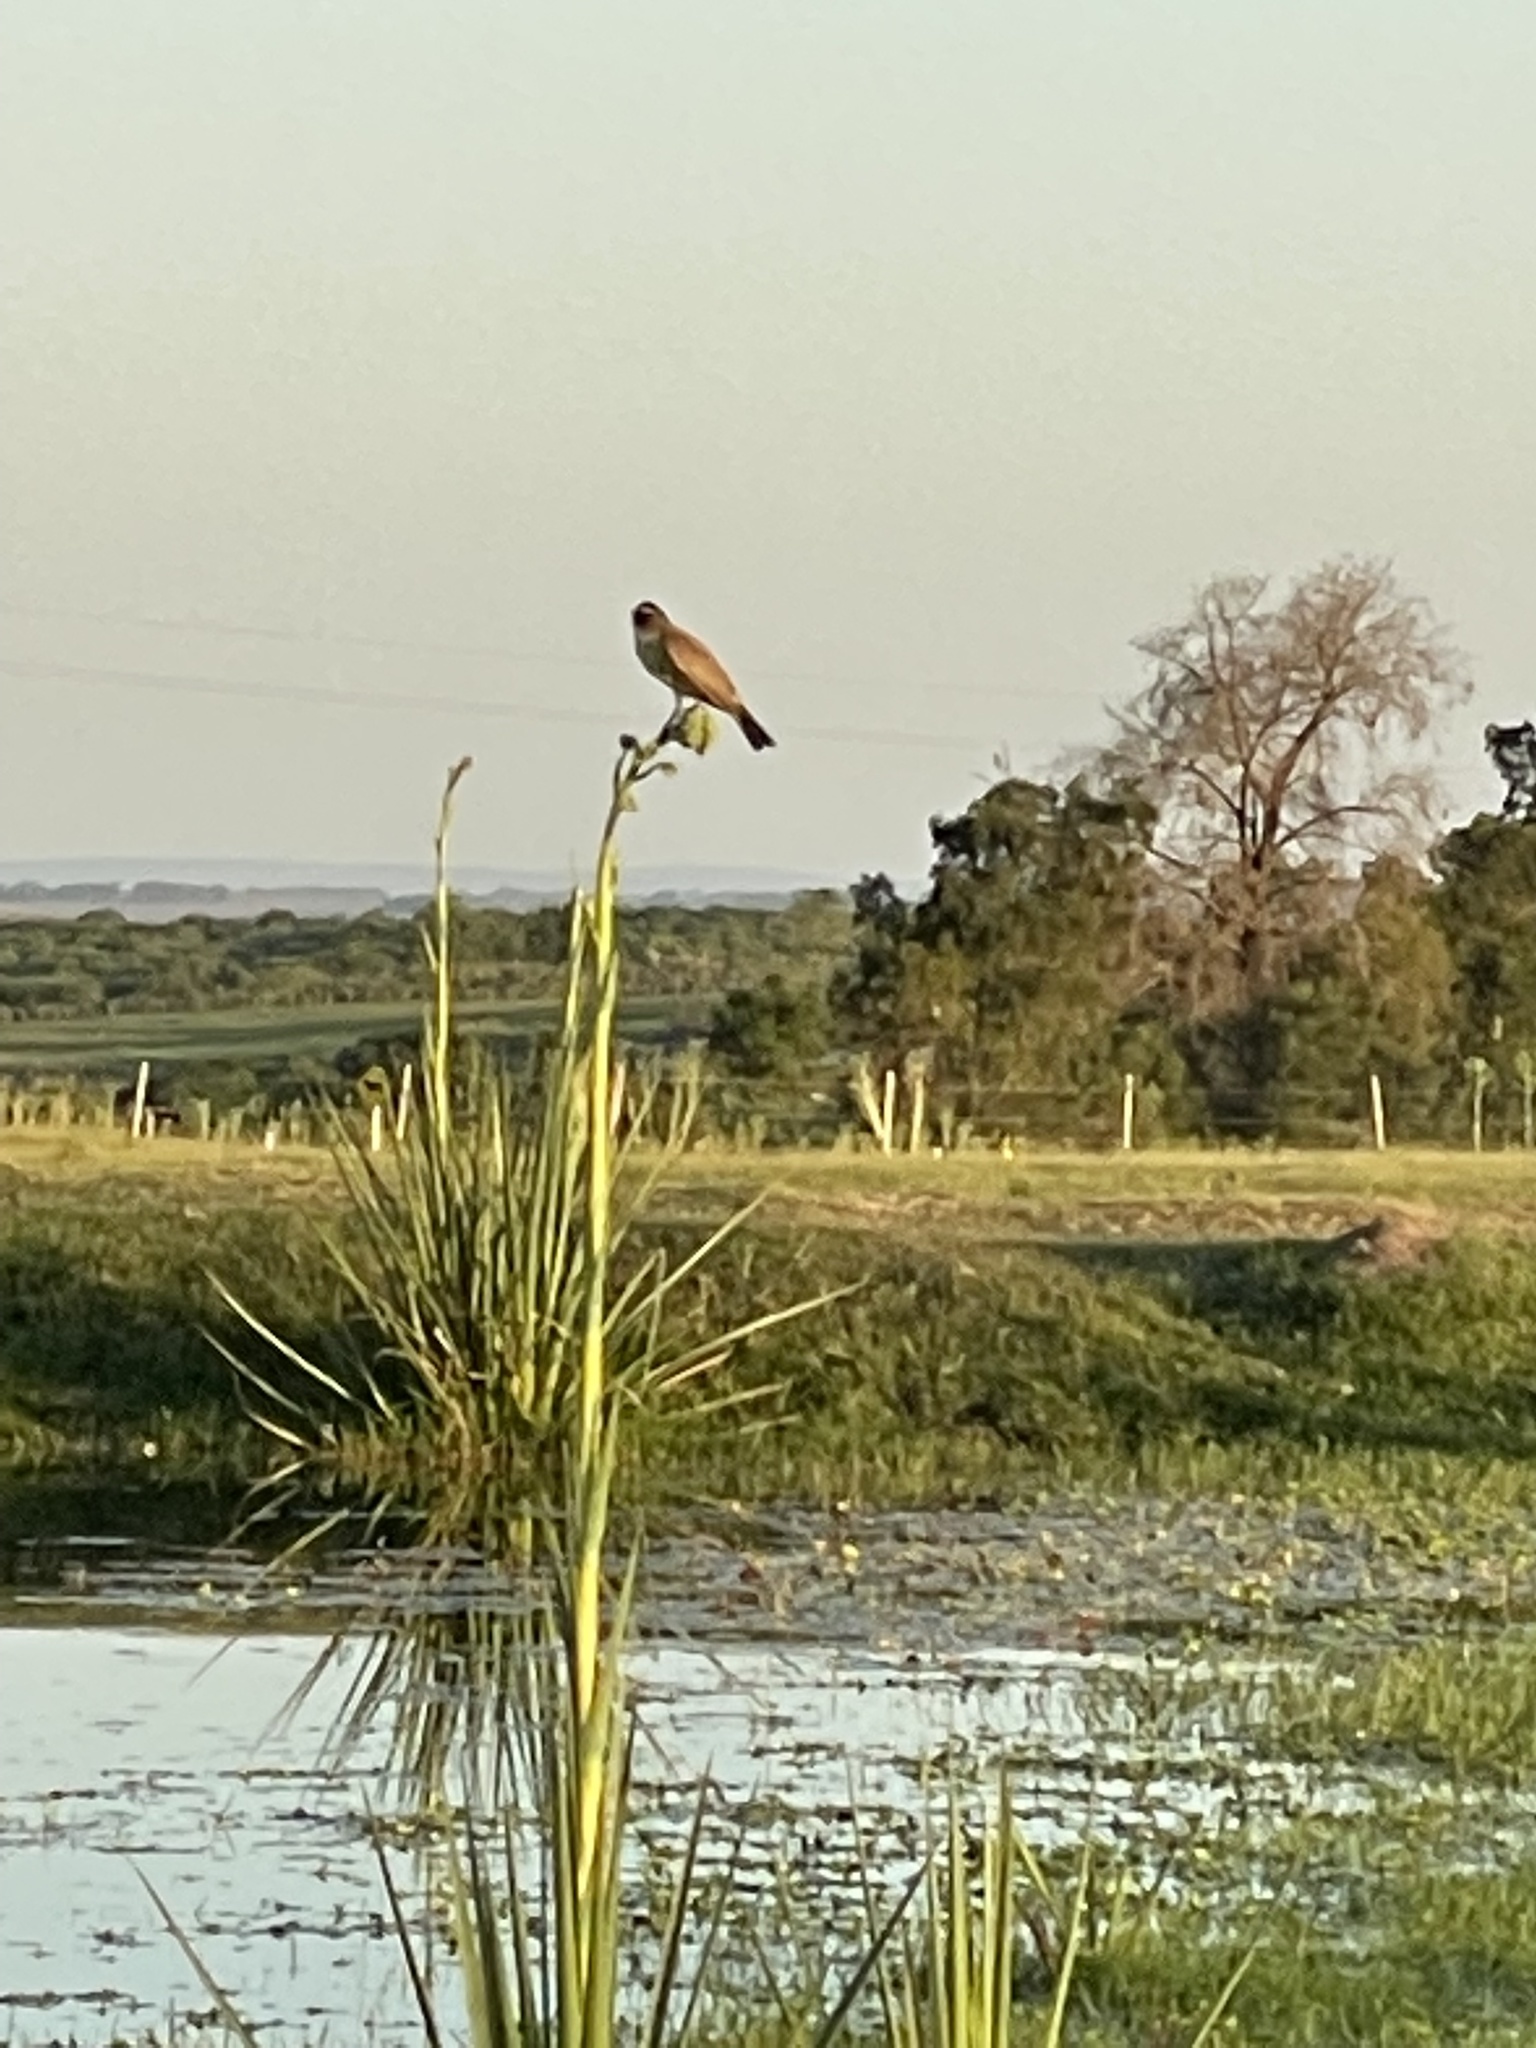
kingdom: Animalia
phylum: Chordata
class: Aves
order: Passeriformes
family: Tyrannidae
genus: Pitangus
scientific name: Pitangus sulphuratus
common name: Great kiskadee
